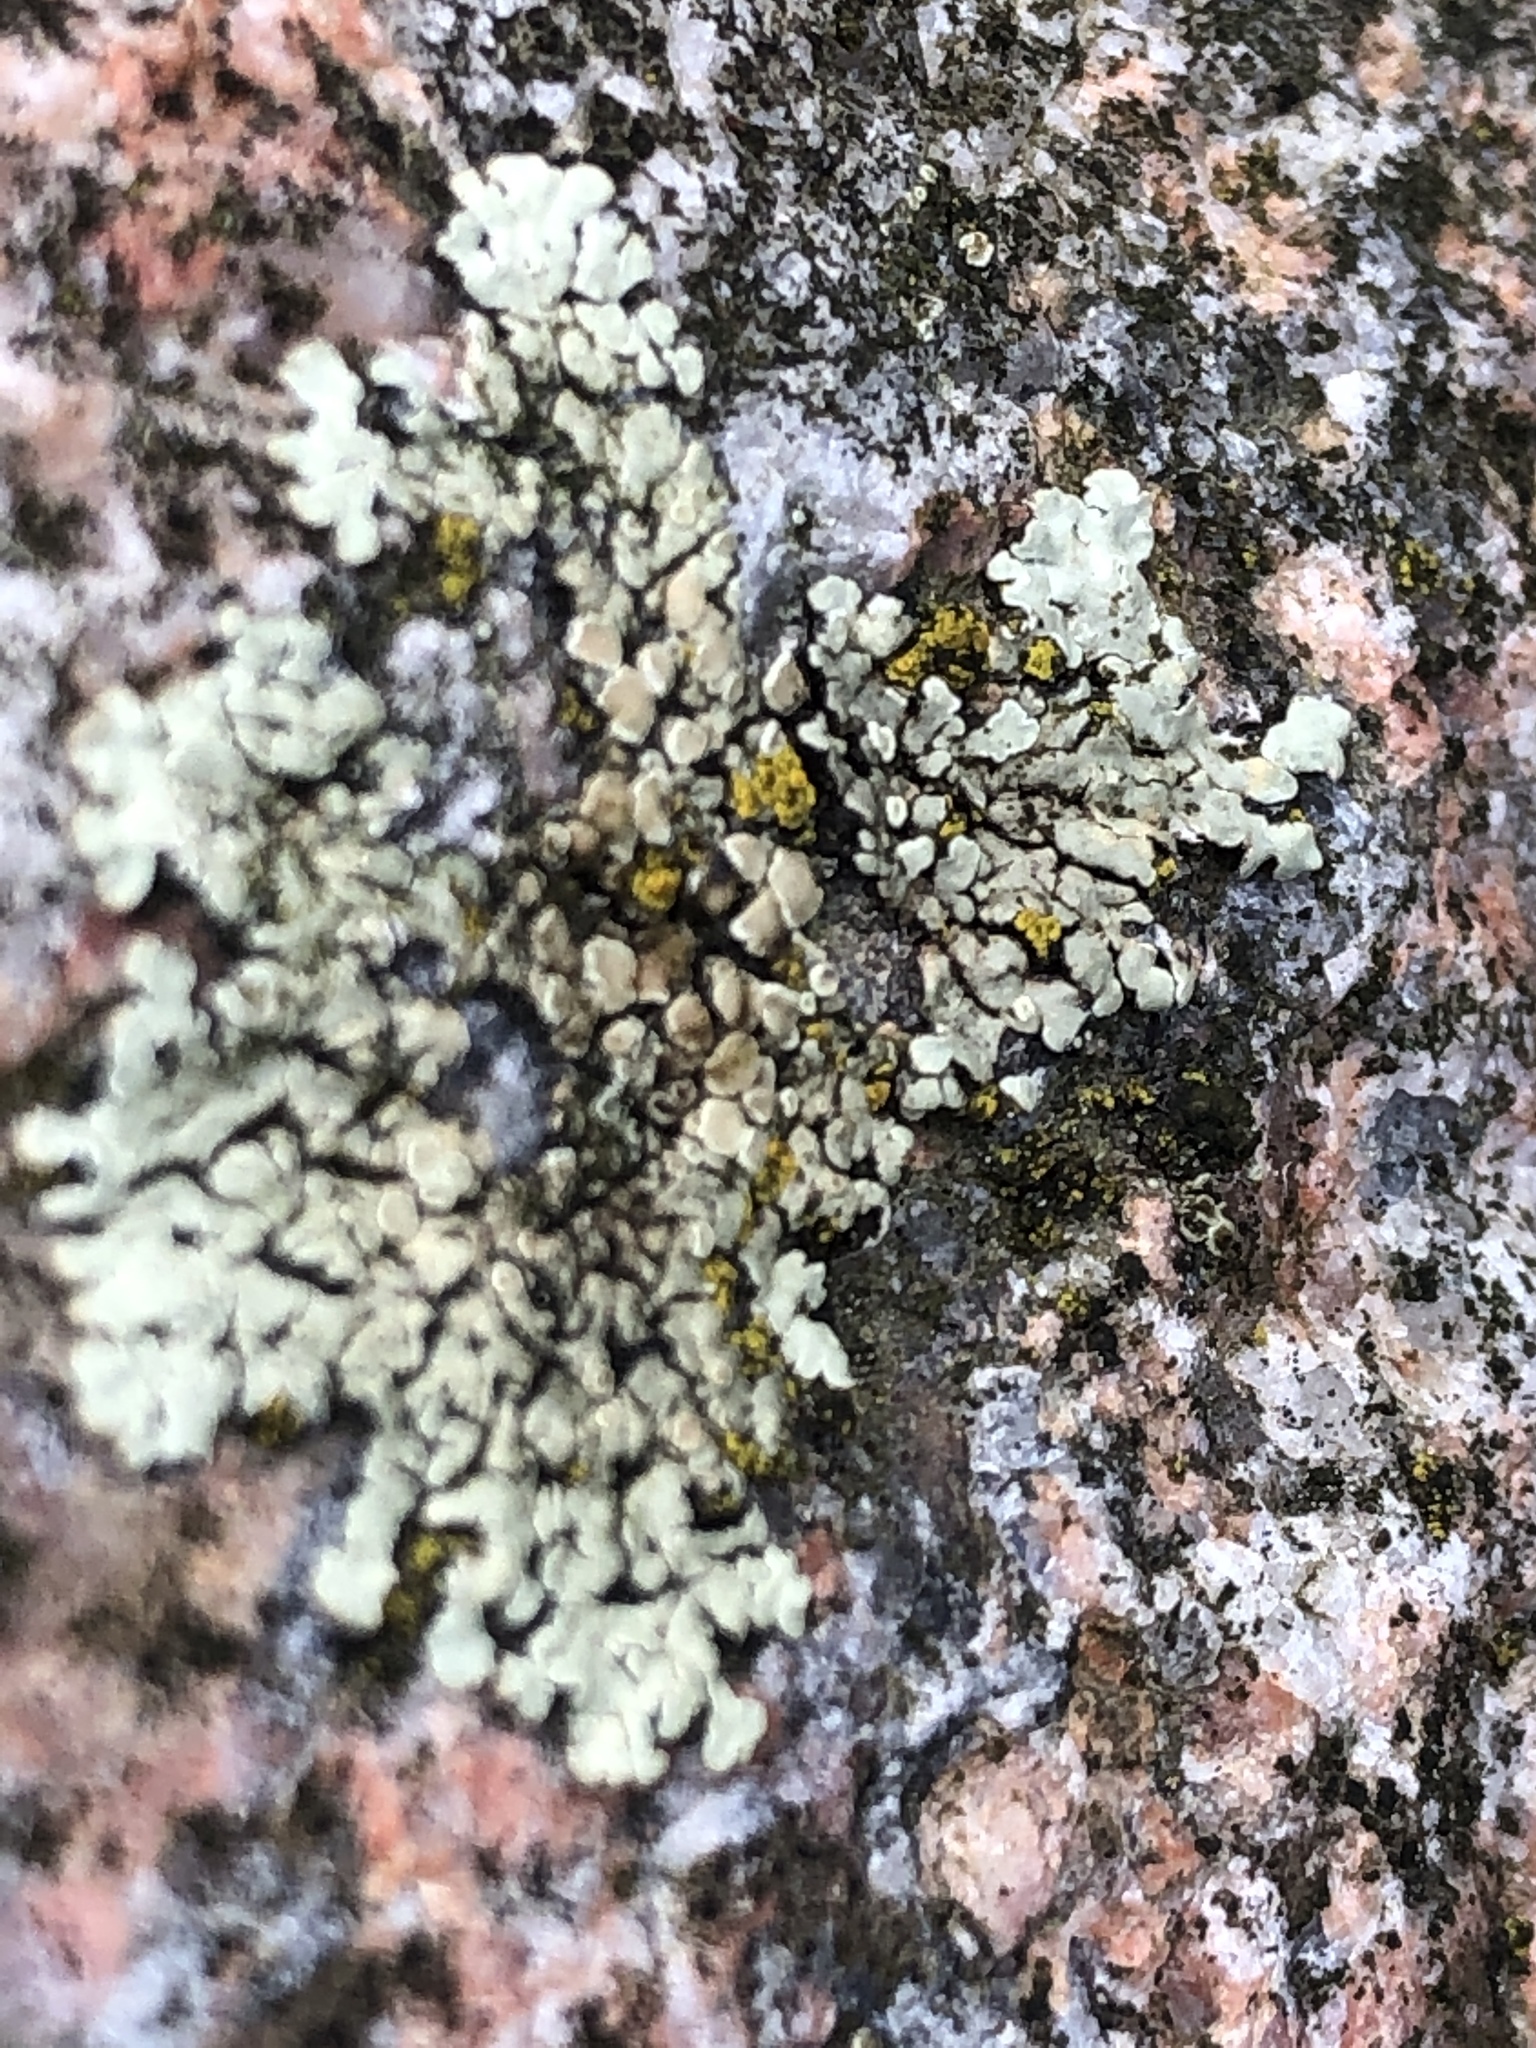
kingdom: Fungi
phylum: Ascomycota
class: Lecanoromycetes
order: Lecanorales
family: Lecanoraceae
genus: Protoparmeliopsis
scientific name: Protoparmeliopsis muralis
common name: Stonewall rim lichen
